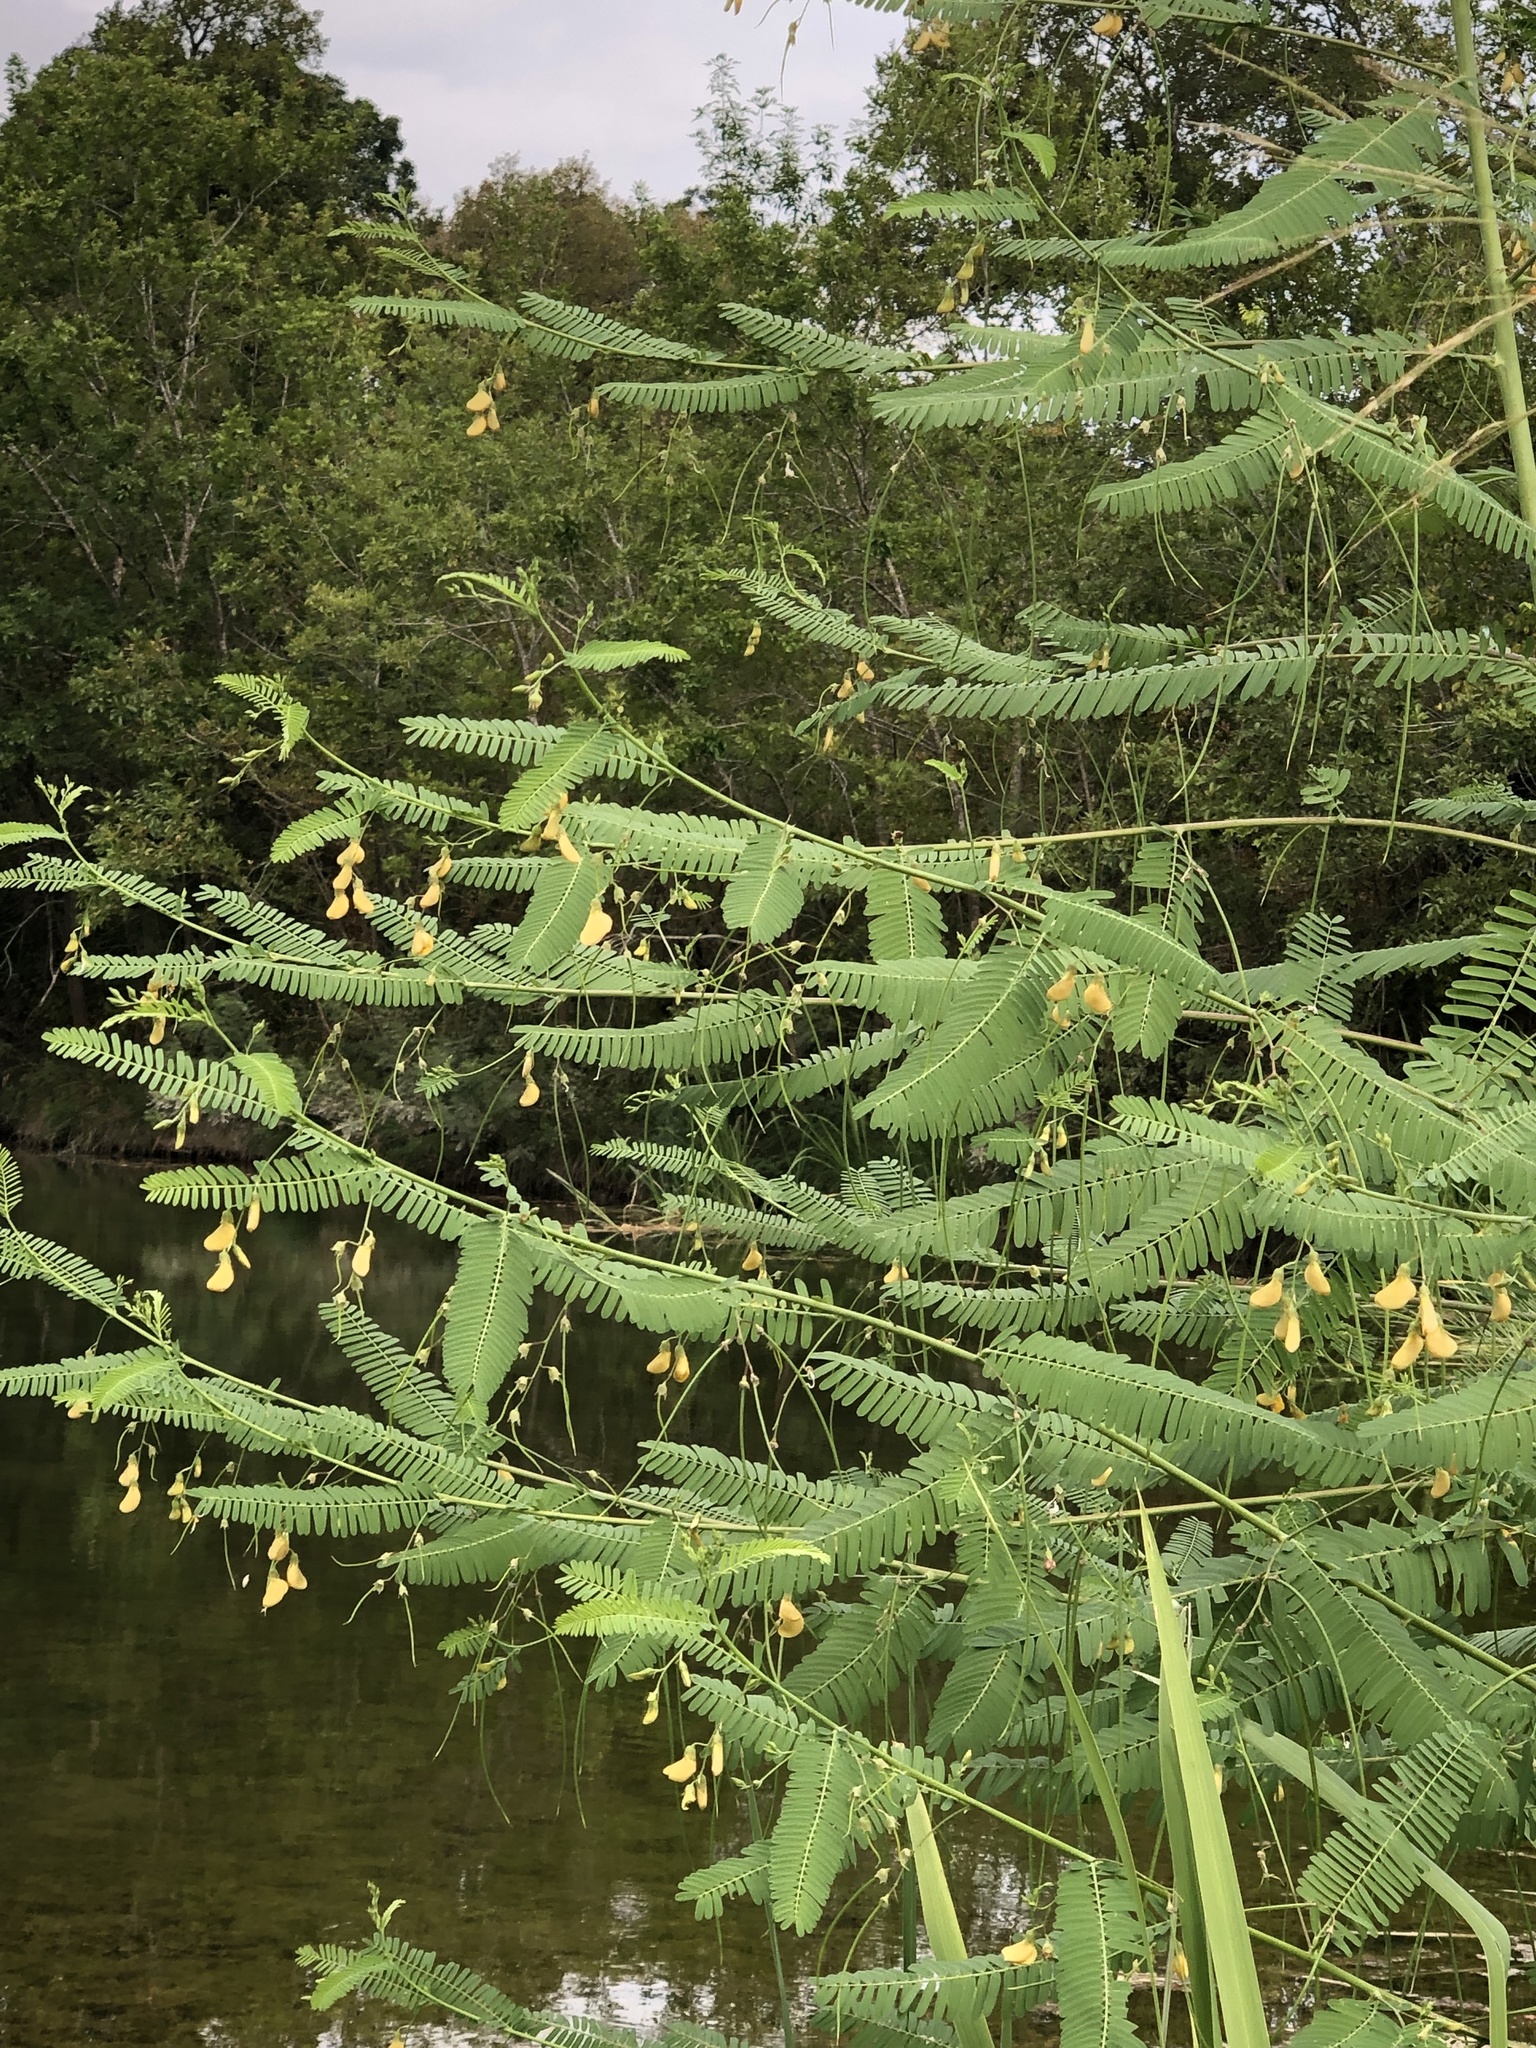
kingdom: Plantae
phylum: Tracheophyta
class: Magnoliopsida
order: Fabales
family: Fabaceae
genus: Sesbania
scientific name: Sesbania herbacea
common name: Bigpod sesbania
